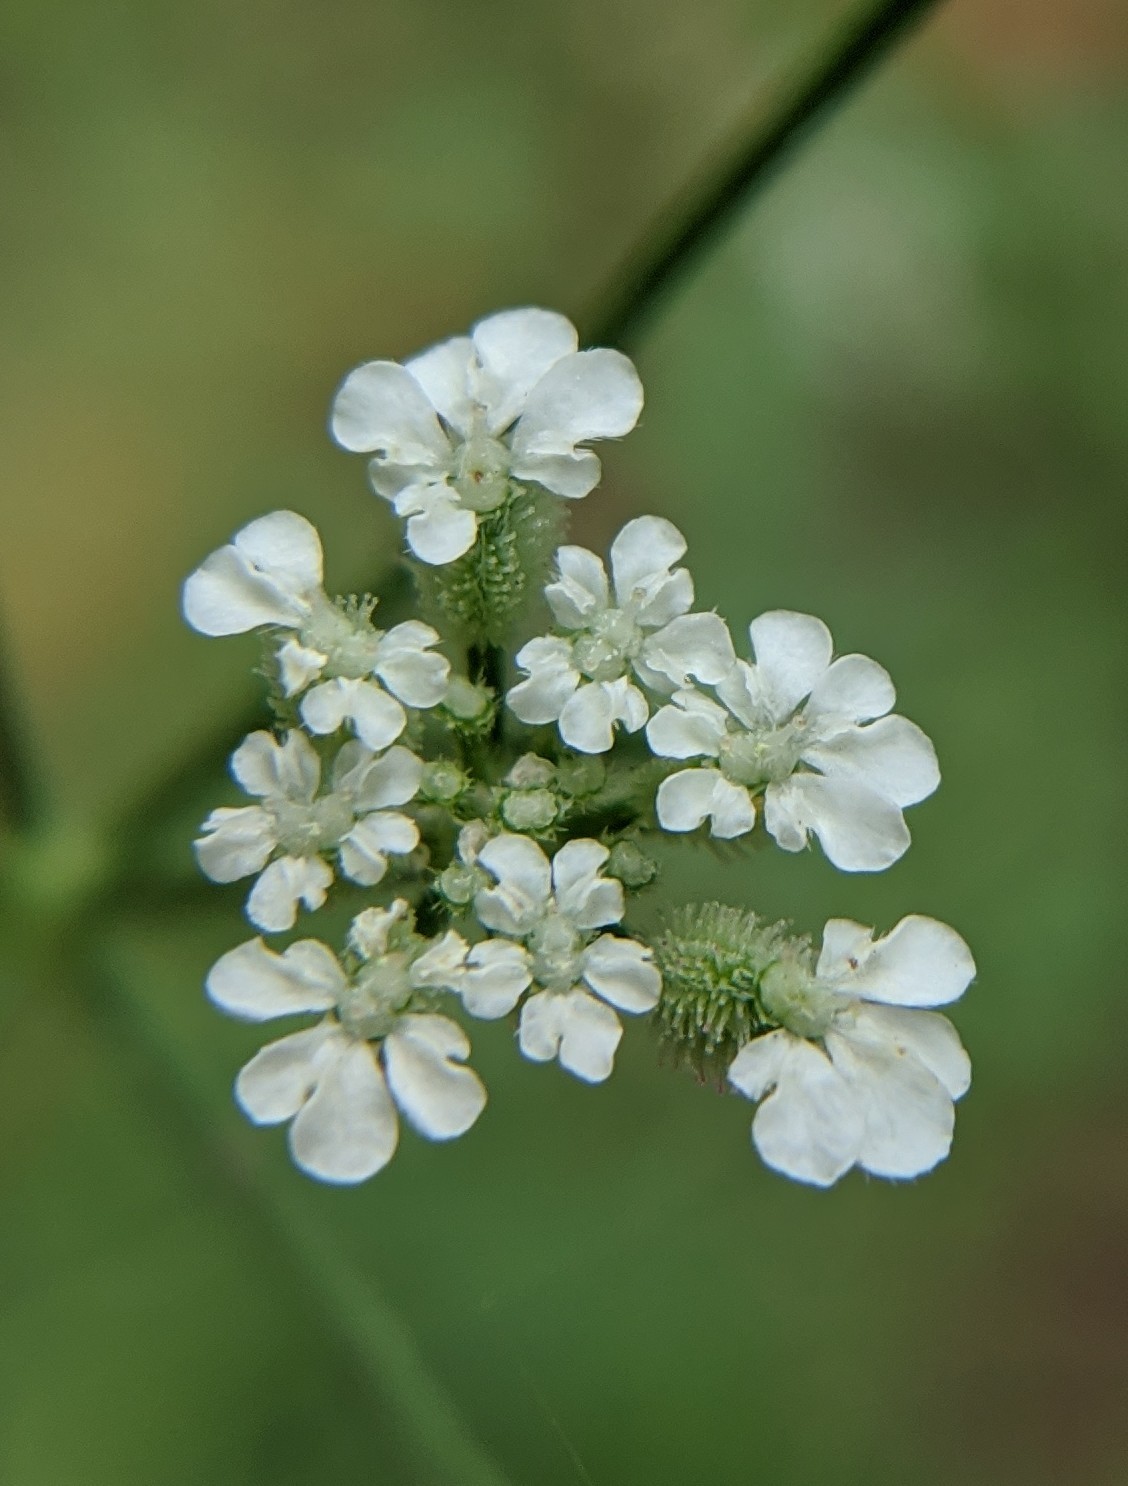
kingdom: Plantae
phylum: Tracheophyta
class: Magnoliopsida
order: Apiales
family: Apiaceae
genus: Torilis
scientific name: Torilis arvensis
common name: Spreading hedge-parsley
